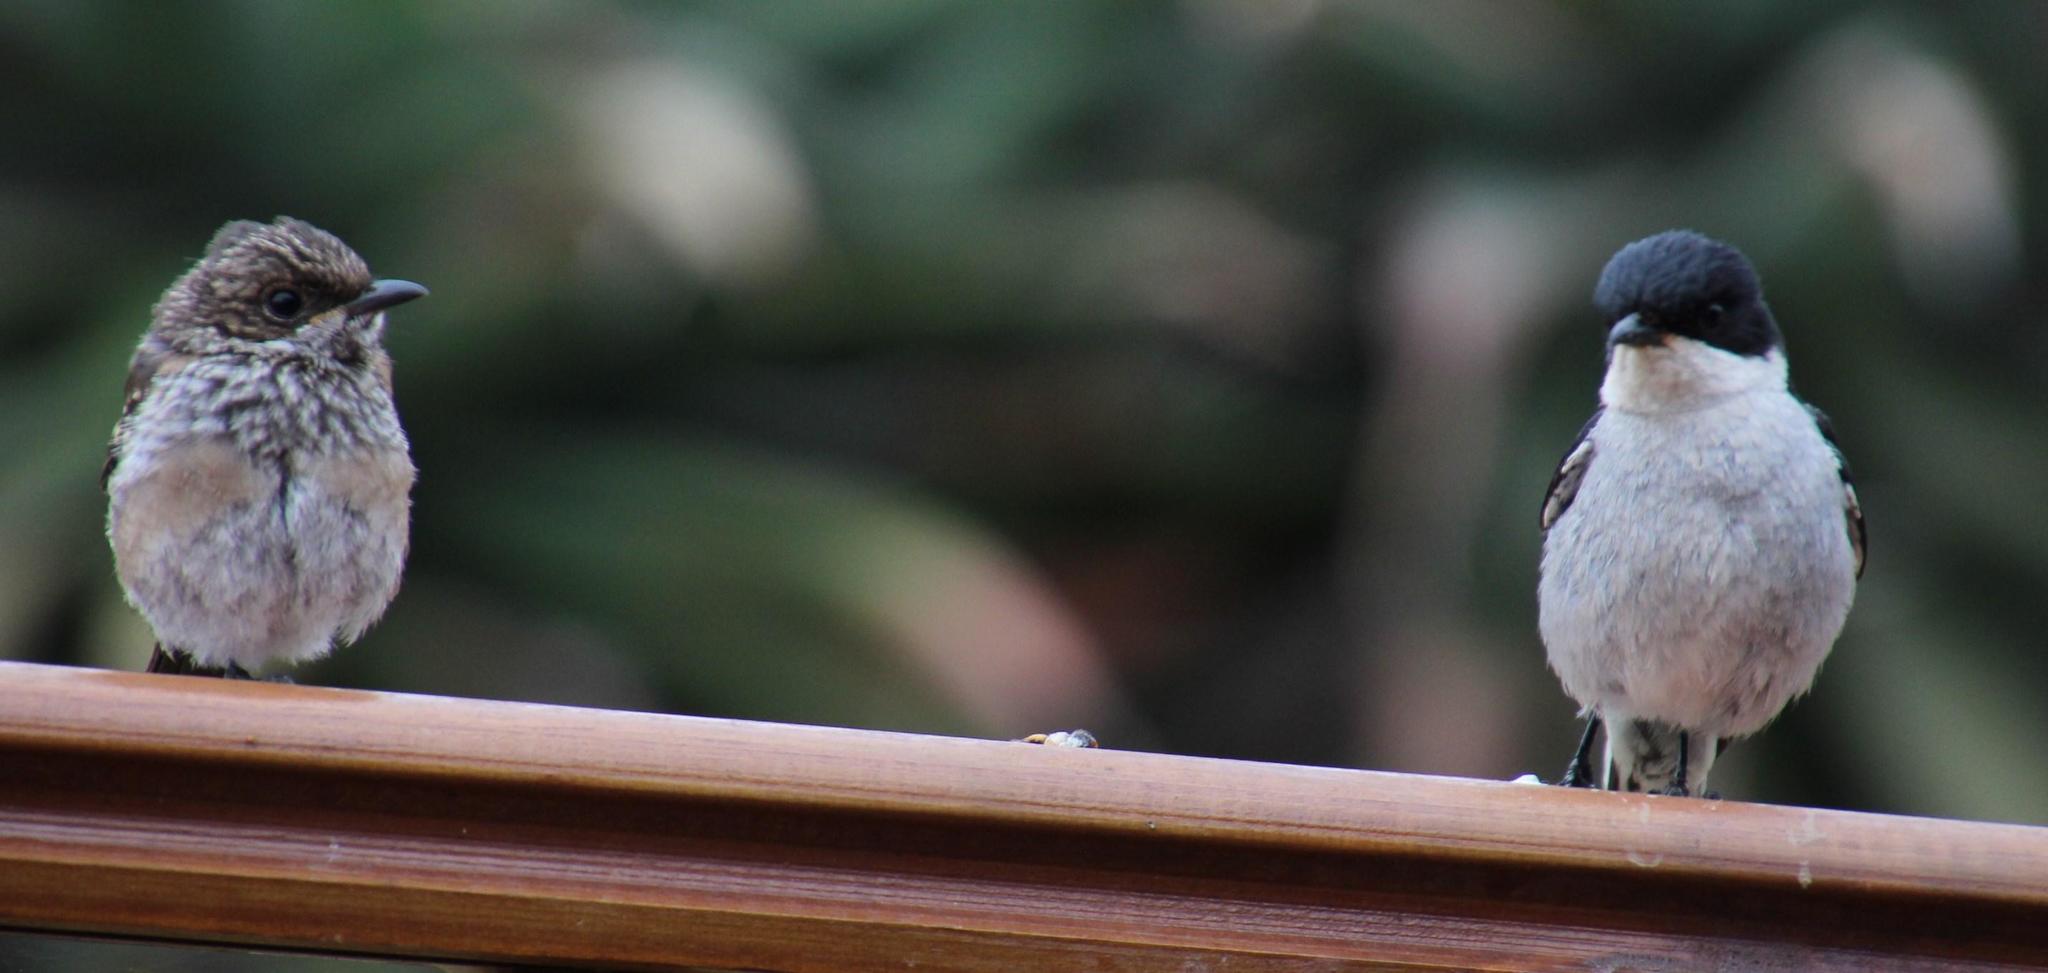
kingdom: Animalia
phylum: Chordata
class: Aves
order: Passeriformes
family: Muscicapidae
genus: Sigelus
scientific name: Sigelus silens
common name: Fiscal flycatcher
